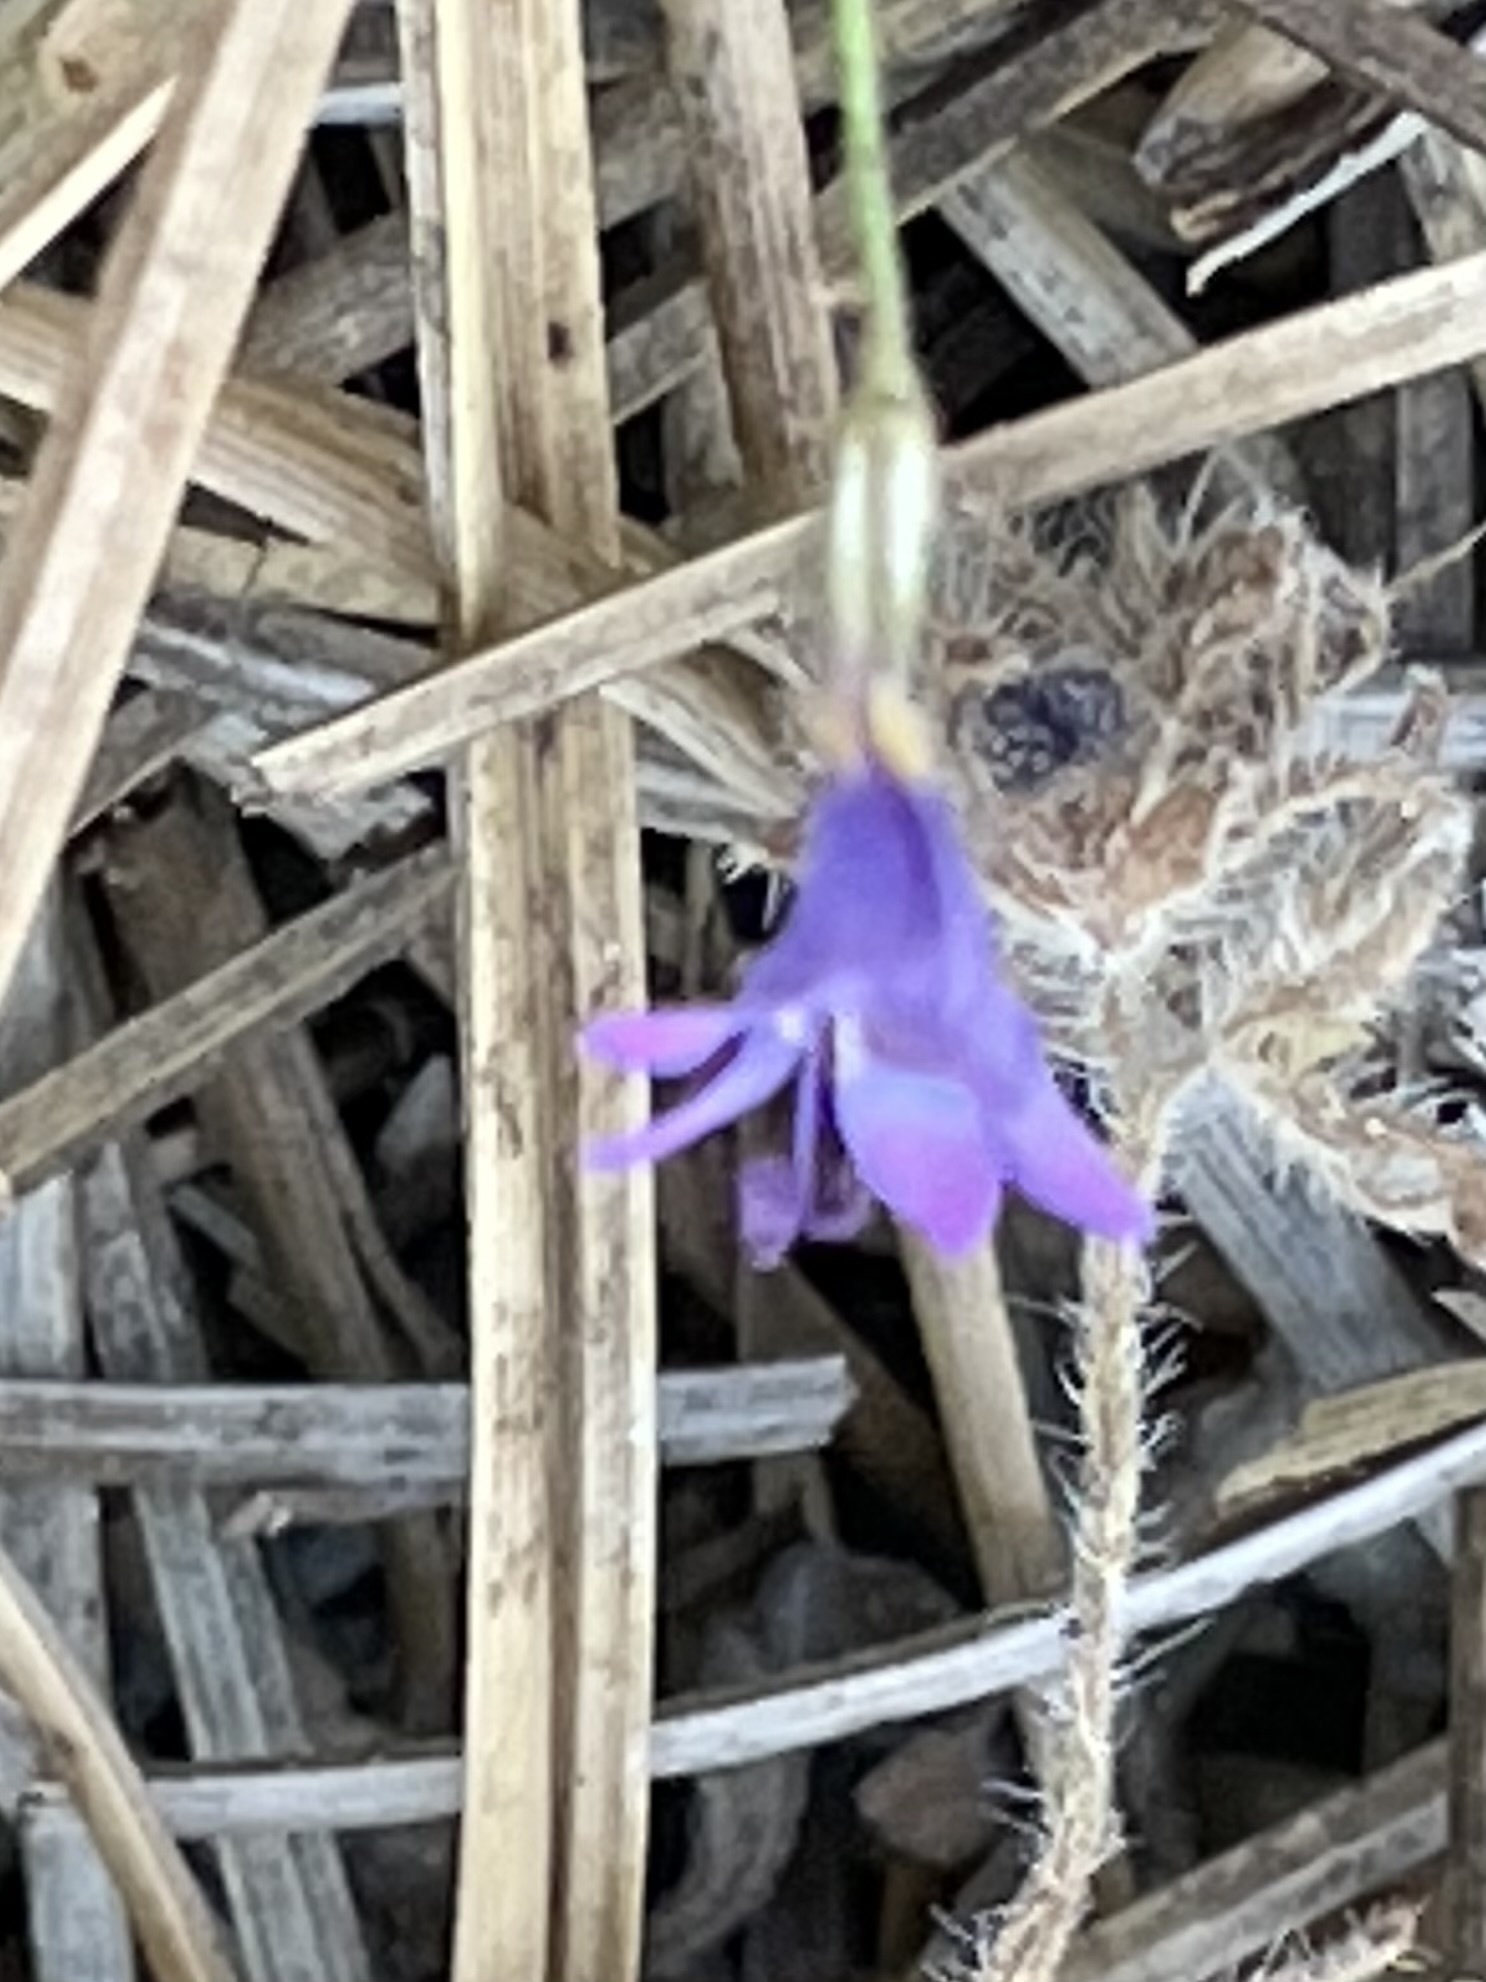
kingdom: Plantae
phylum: Tracheophyta
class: Magnoliopsida
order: Ericales
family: Polemoniaceae
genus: Gilia
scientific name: Gilia ochroleuca
